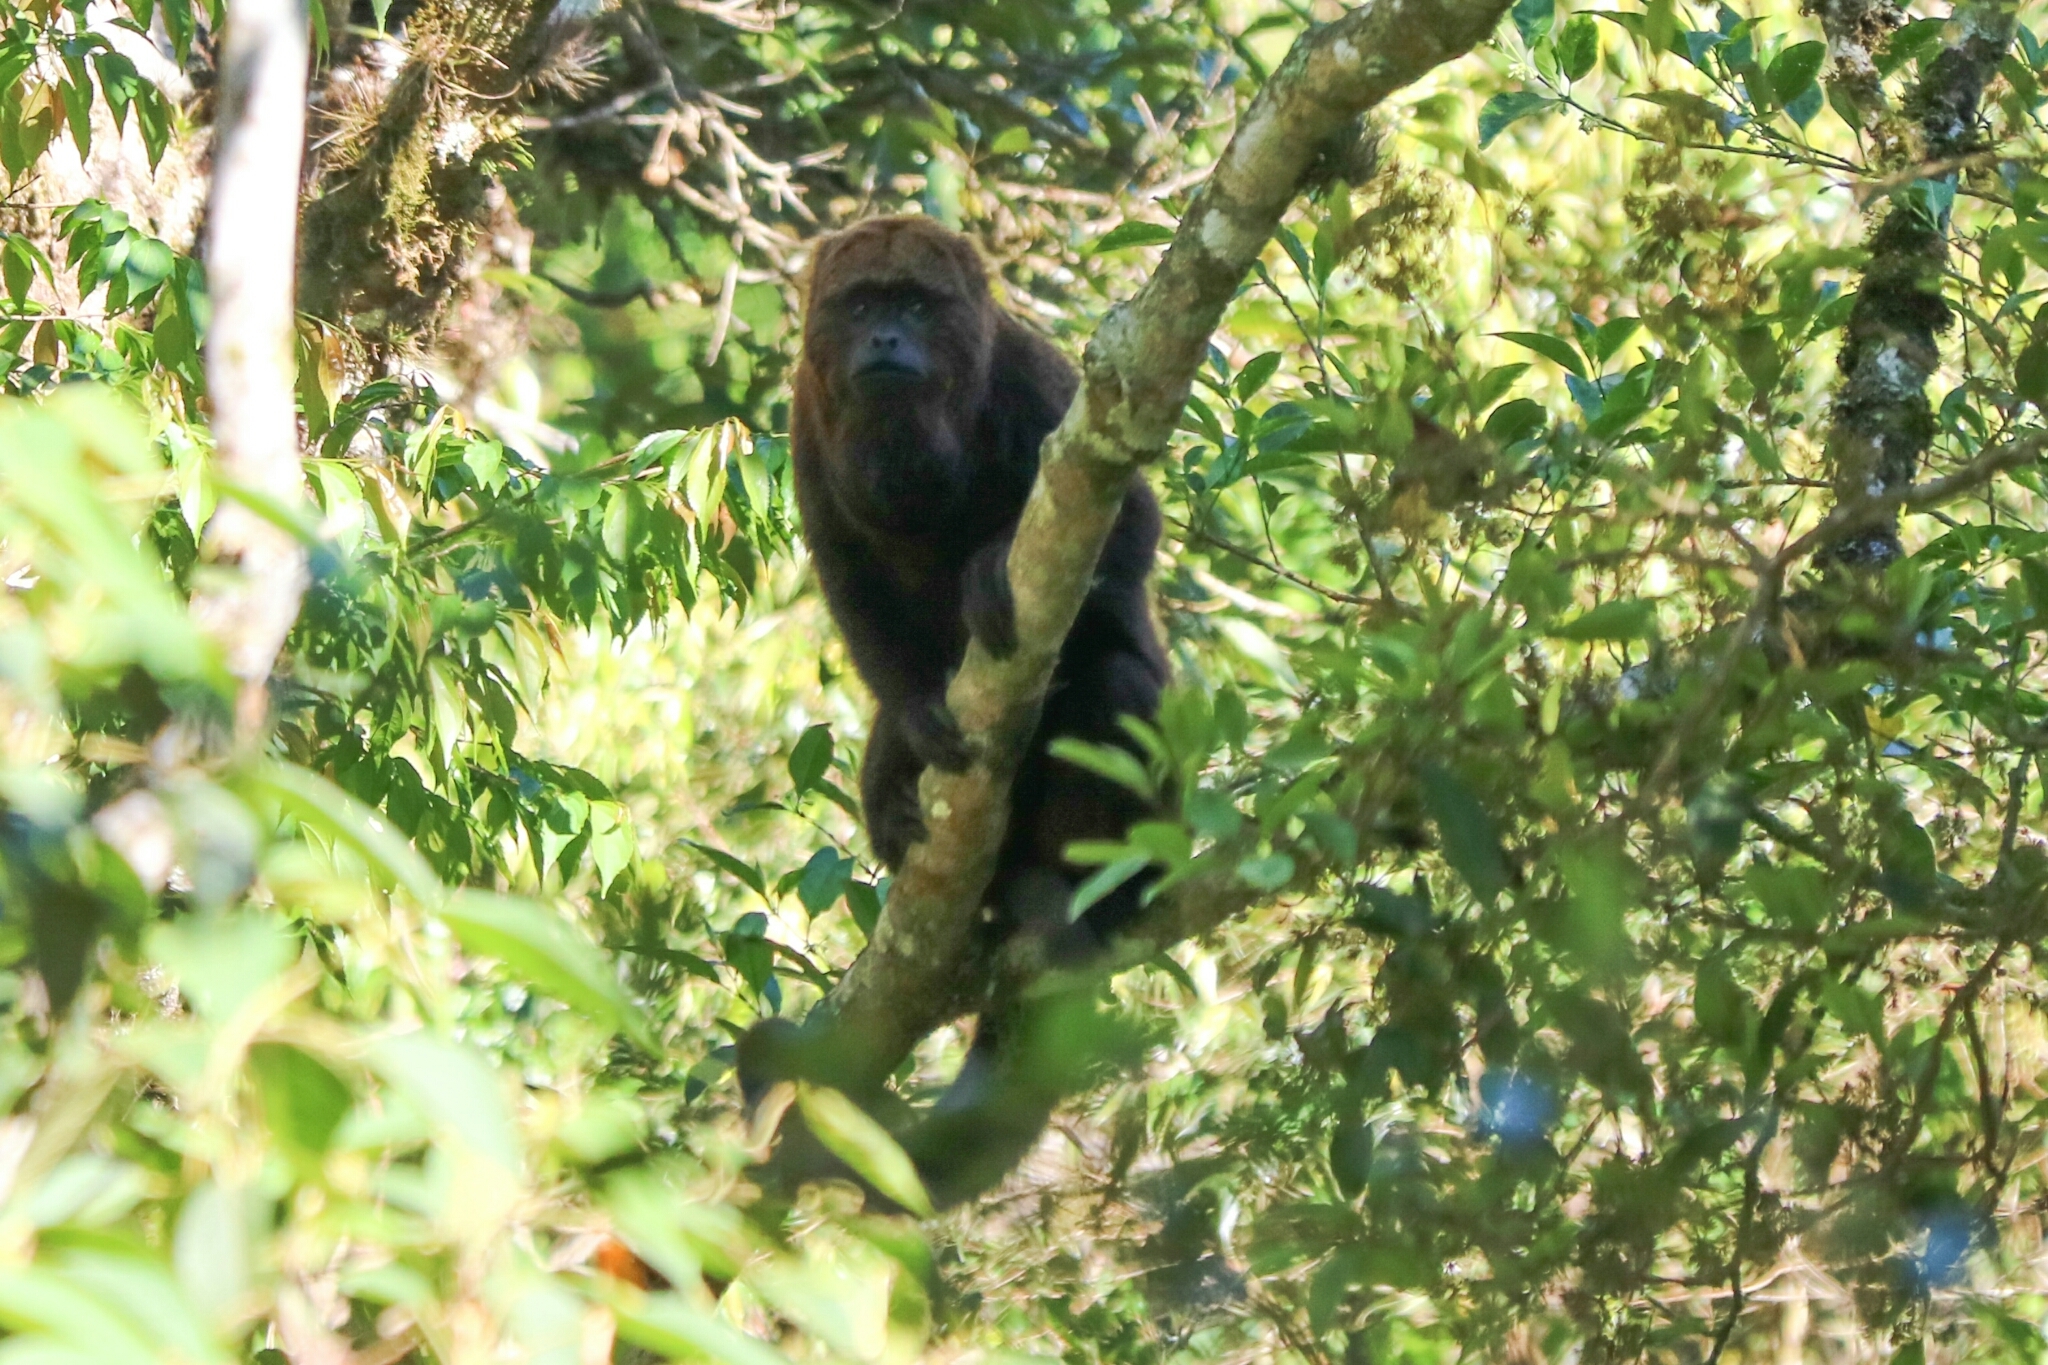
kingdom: Animalia
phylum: Chordata
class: Mammalia
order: Primates
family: Atelidae
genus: Alouatta
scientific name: Alouatta guariba
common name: Brown howler monkey
